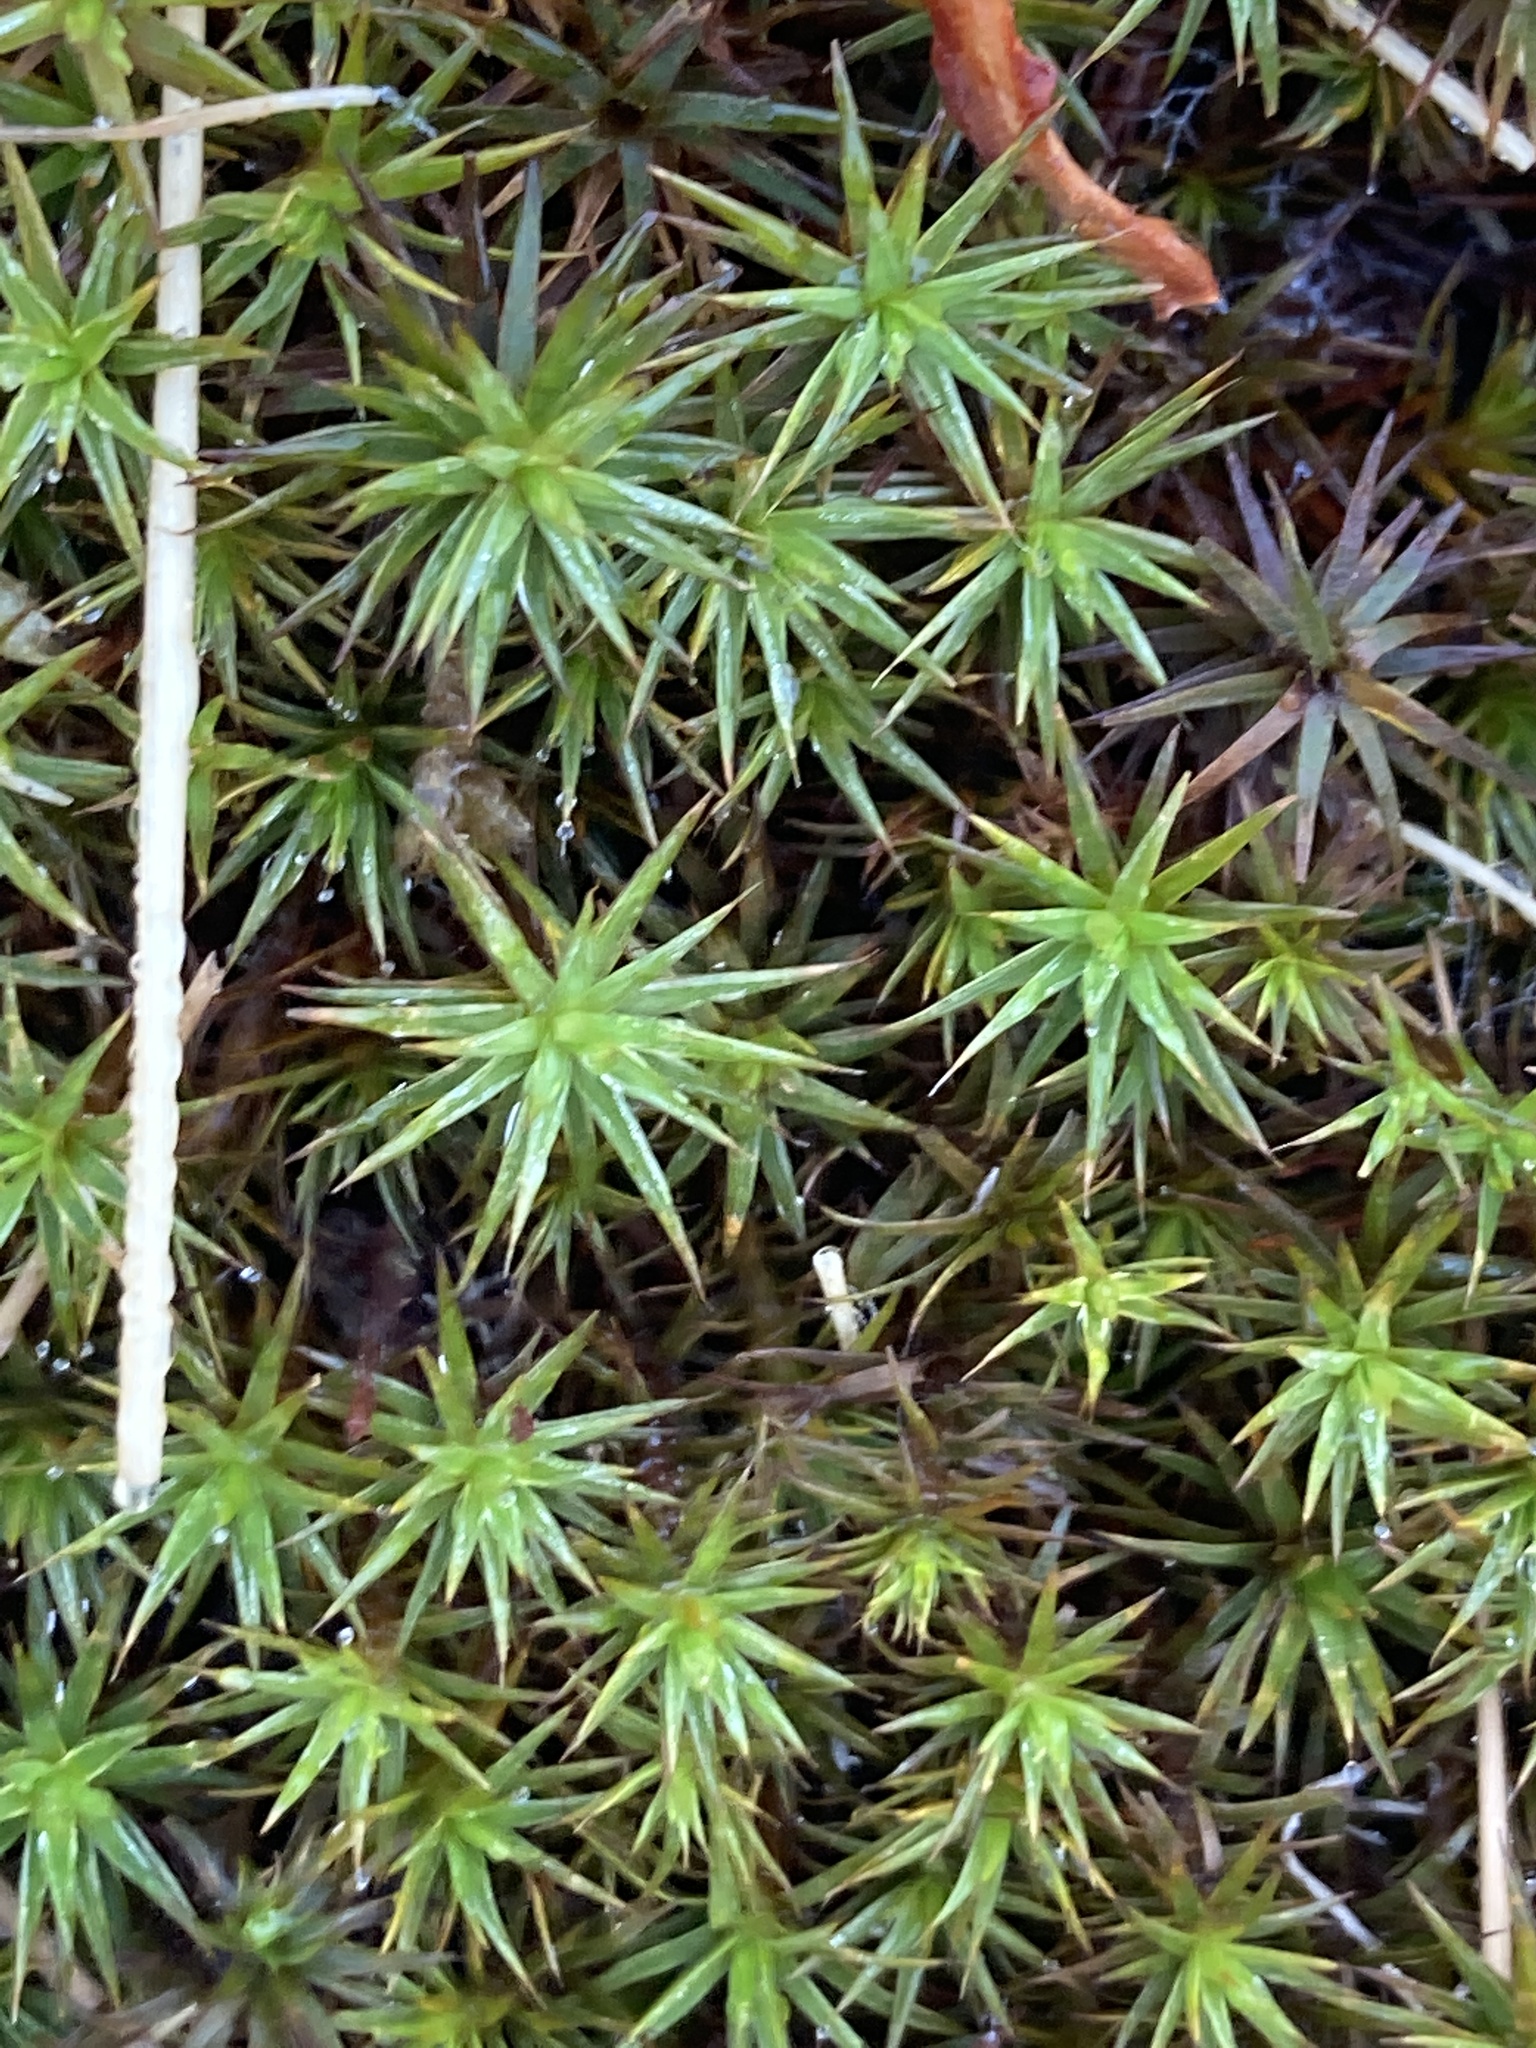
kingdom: Plantae
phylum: Bryophyta
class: Polytrichopsida
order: Polytrichales
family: Polytrichaceae
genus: Polytrichum
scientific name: Polytrichum juniperinum
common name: Juniper haircap moss
